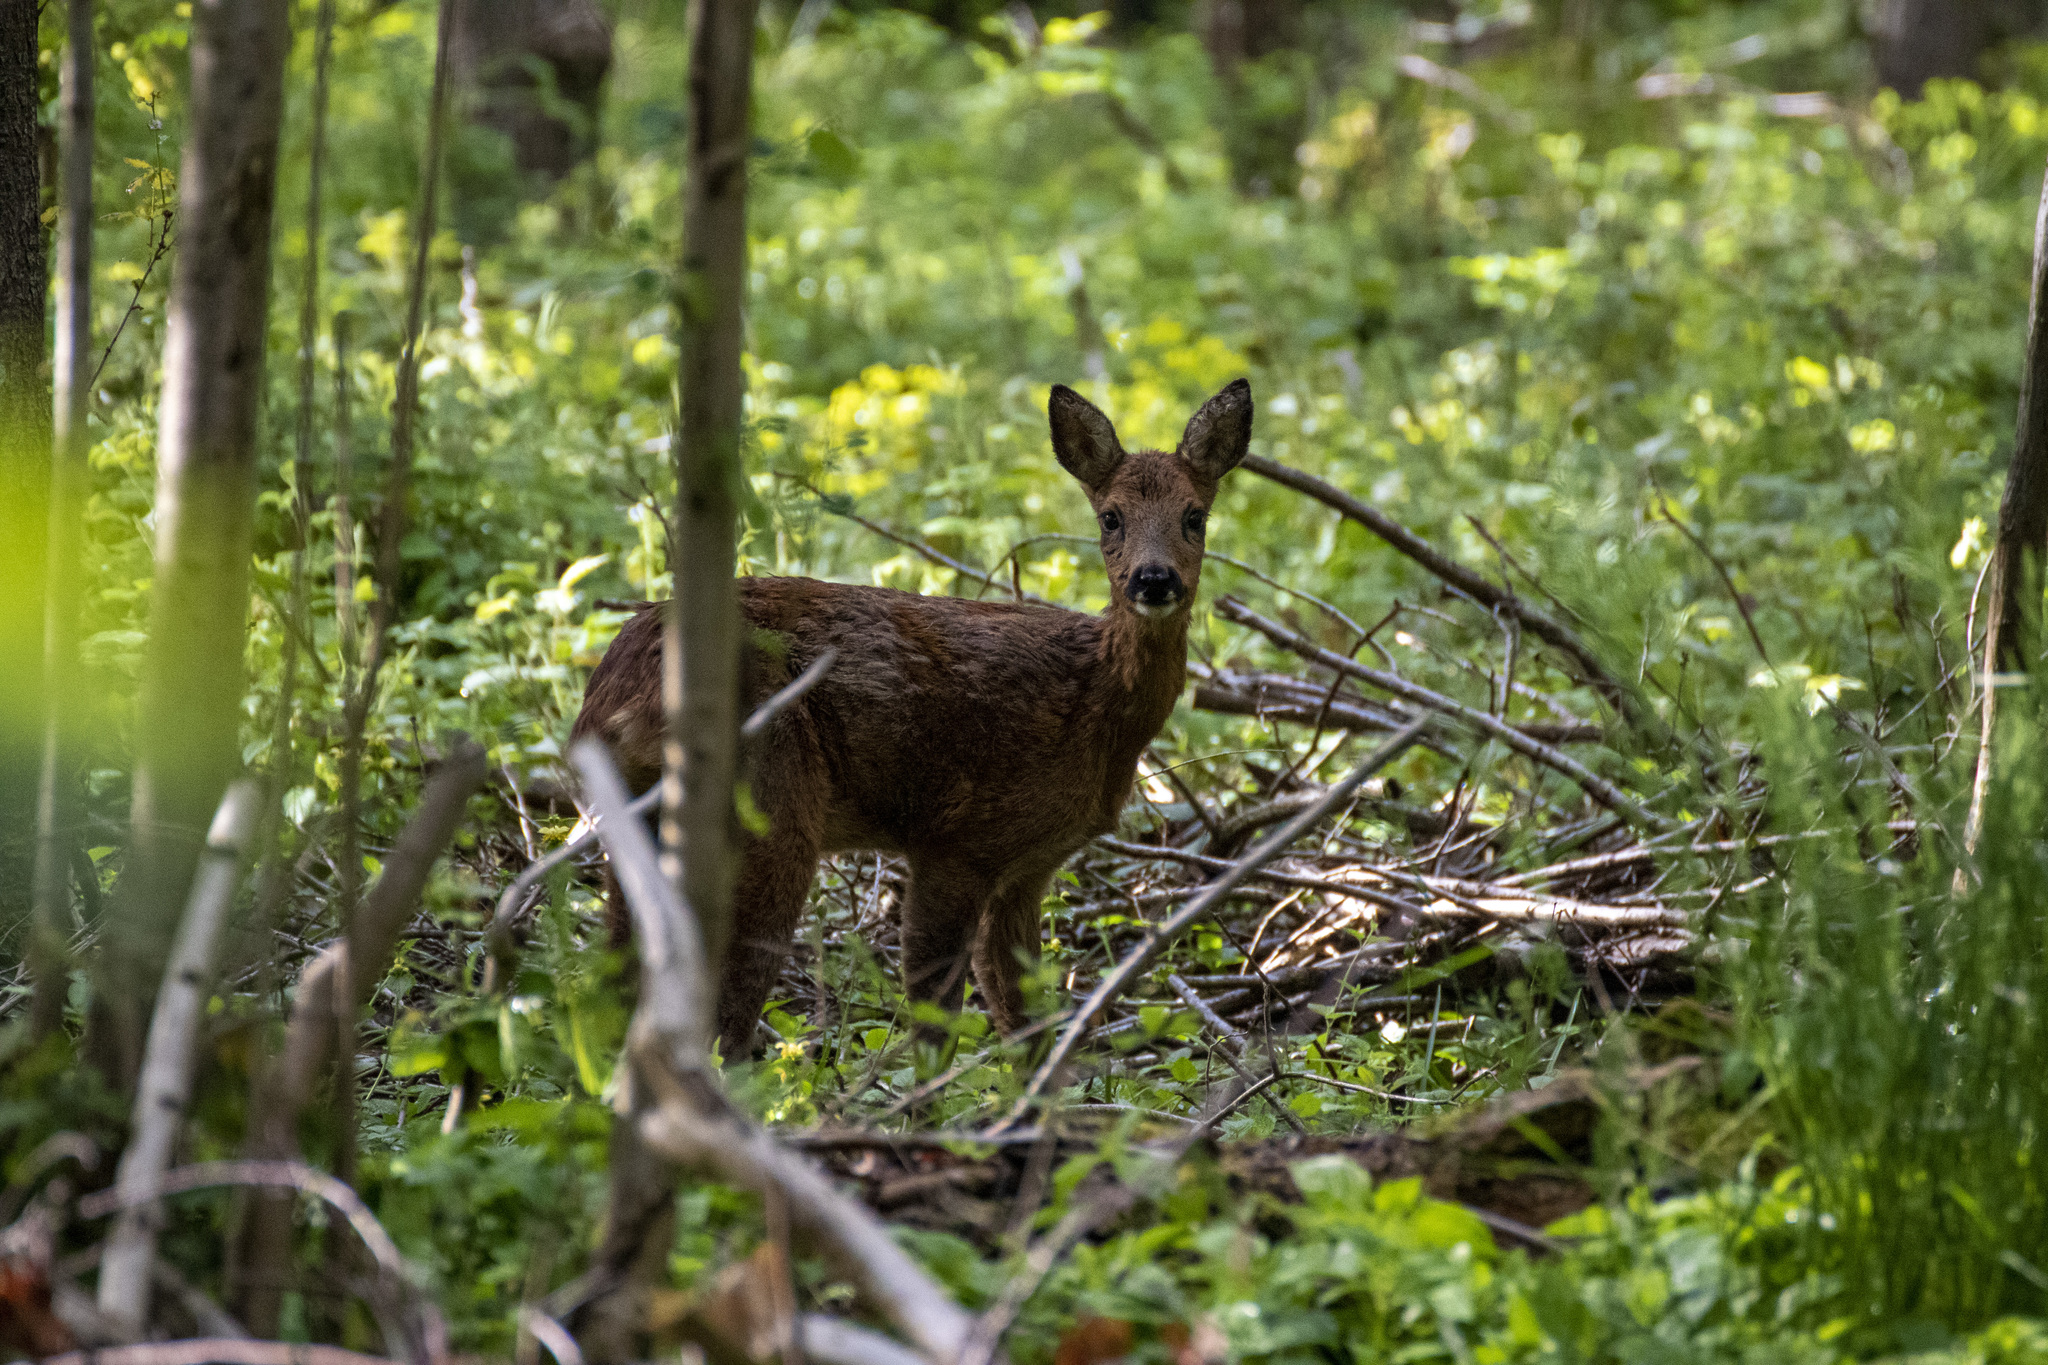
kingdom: Animalia
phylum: Chordata
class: Mammalia
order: Artiodactyla
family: Cervidae
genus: Capreolus
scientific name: Capreolus capreolus
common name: Western roe deer
